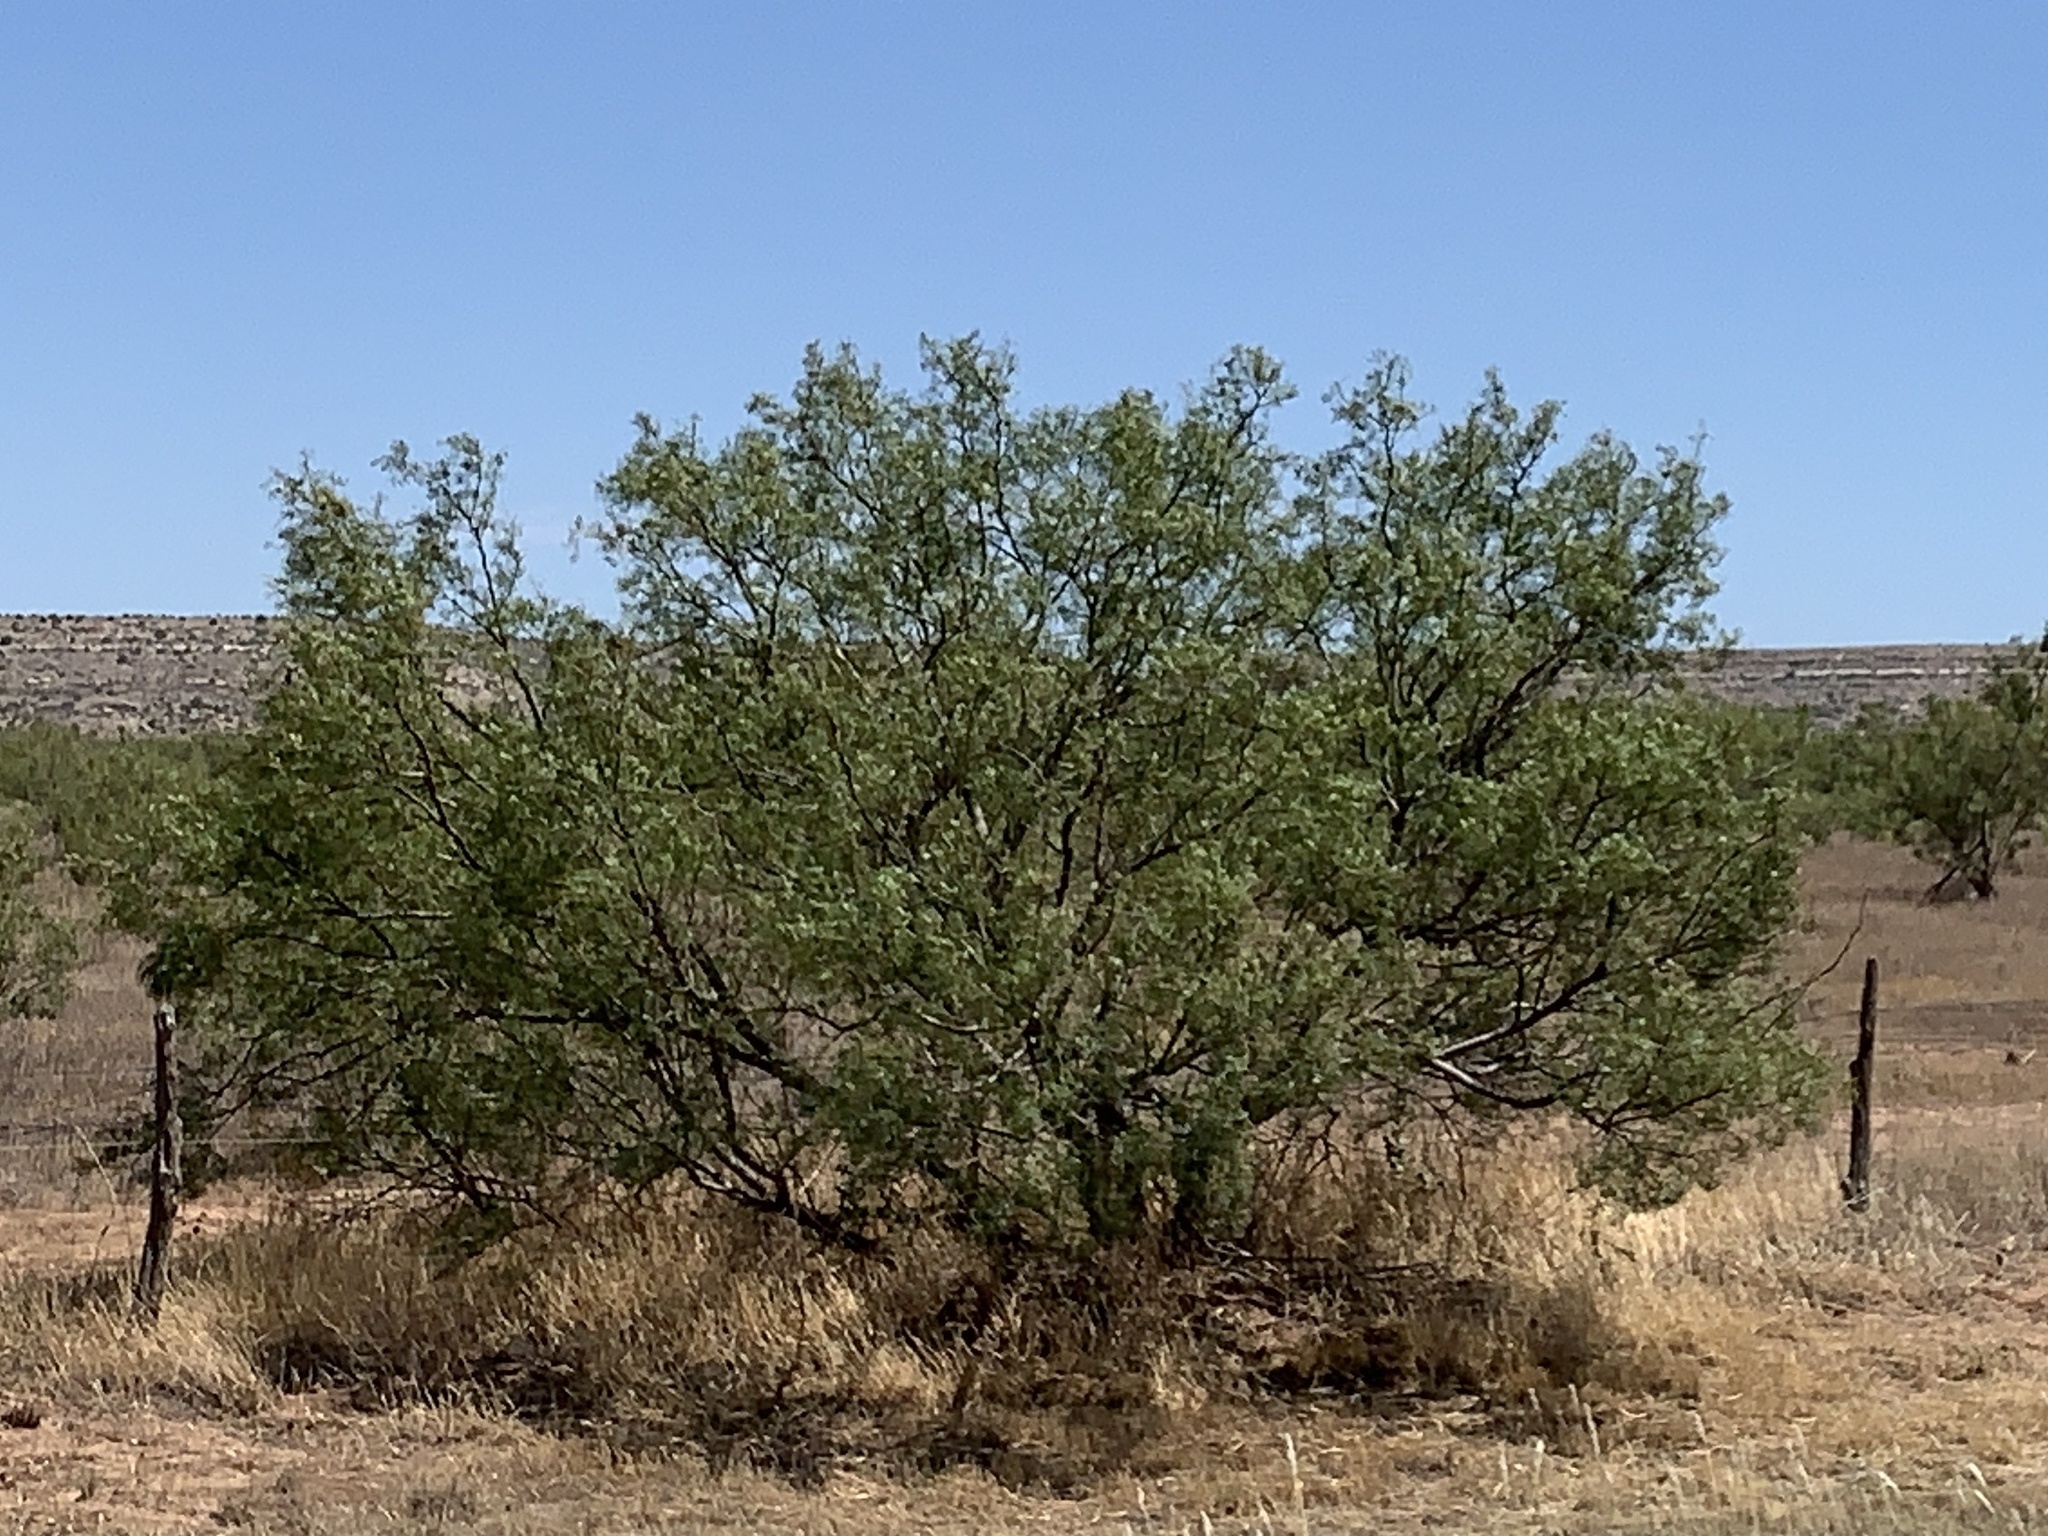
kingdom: Plantae
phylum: Tracheophyta
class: Magnoliopsida
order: Fabales
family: Fabaceae
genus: Prosopis
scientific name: Prosopis glandulosa
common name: Honey mesquite
